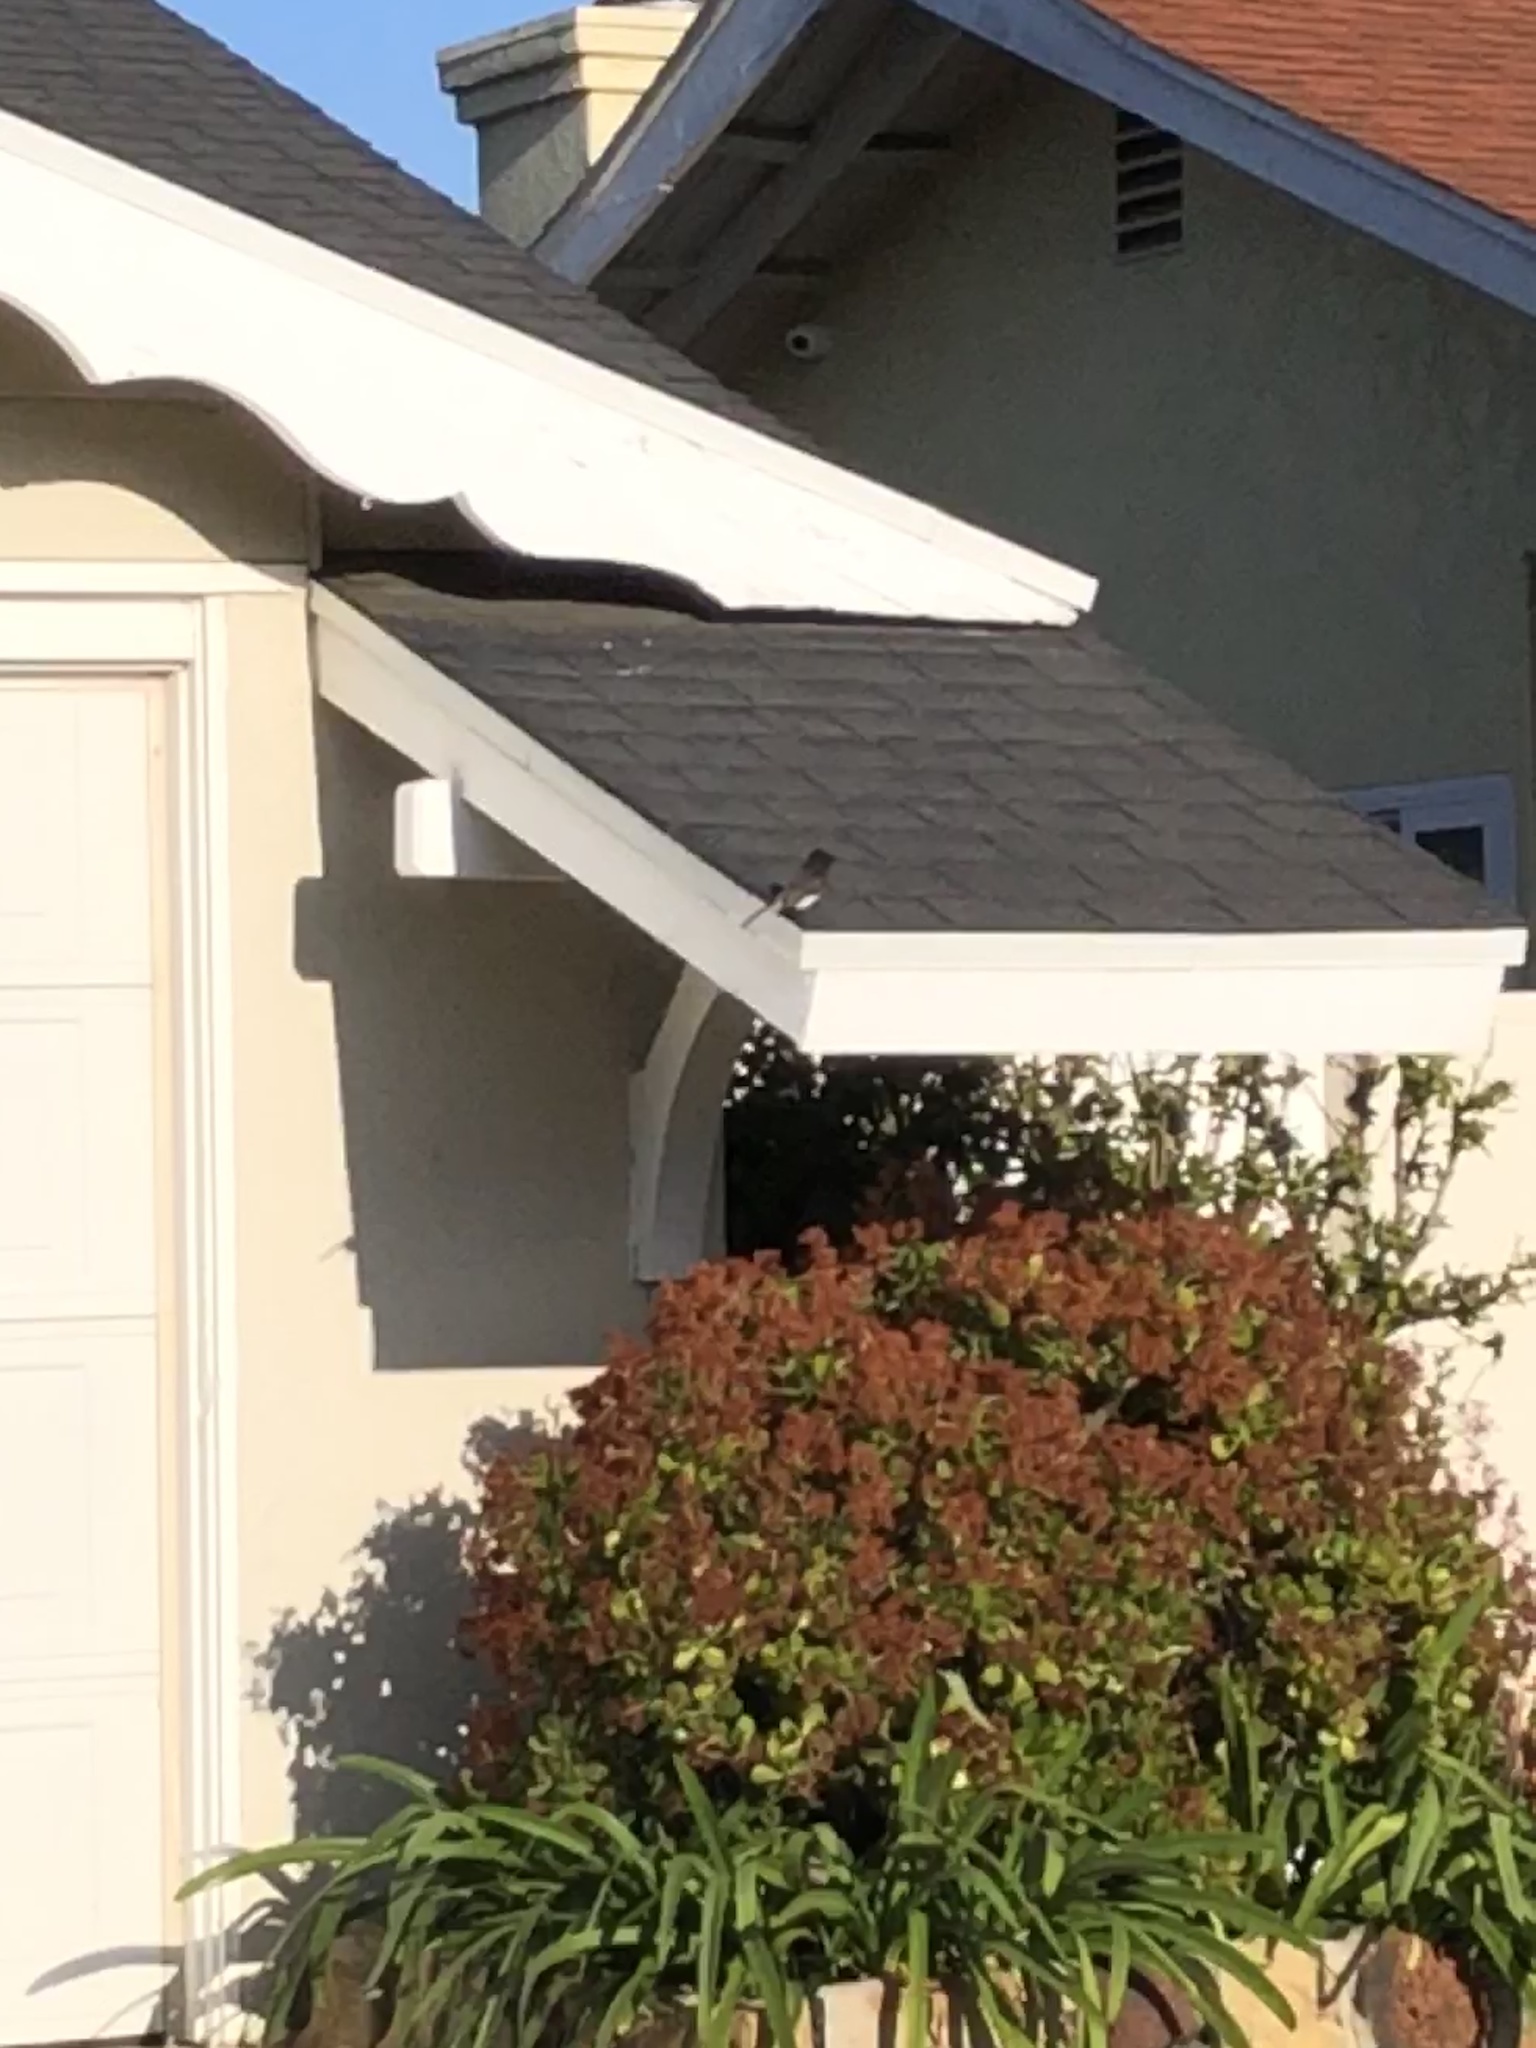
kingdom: Animalia
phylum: Chordata
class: Aves
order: Passeriformes
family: Tyrannidae
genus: Sayornis
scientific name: Sayornis nigricans
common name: Black phoebe
